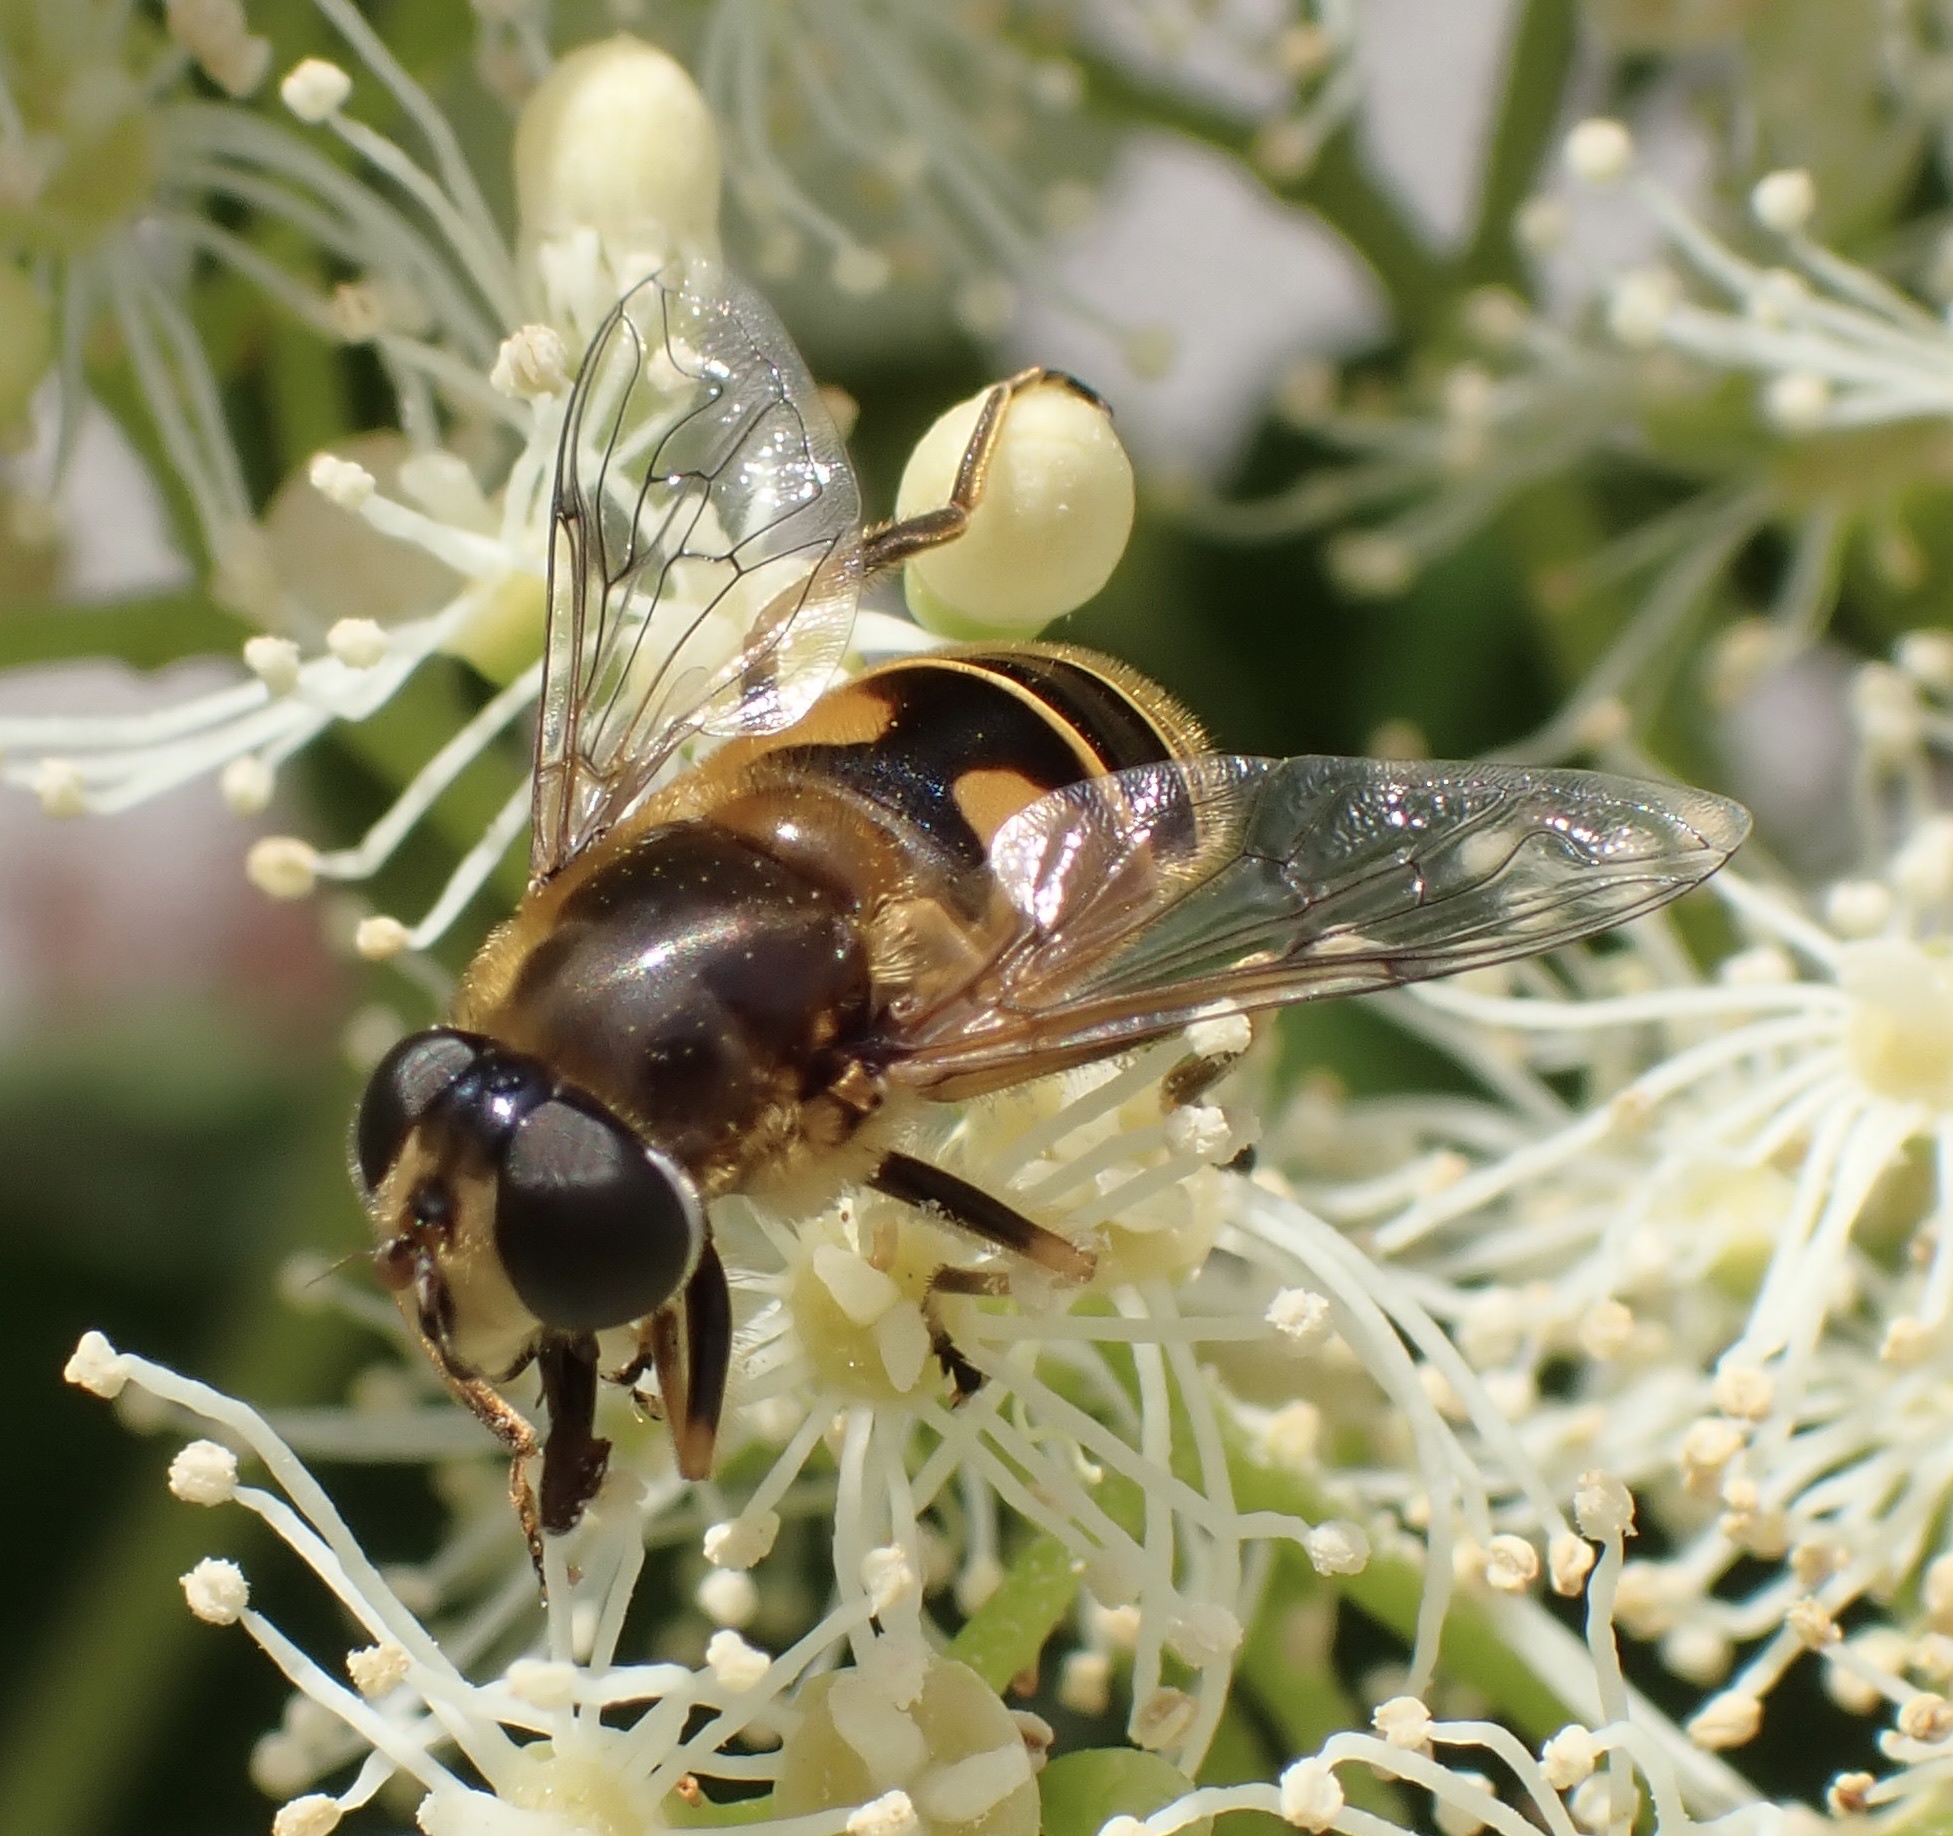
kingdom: Animalia
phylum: Arthropoda
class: Insecta
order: Diptera
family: Syrphidae
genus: Cheilosia
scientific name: Cheilosia morio
